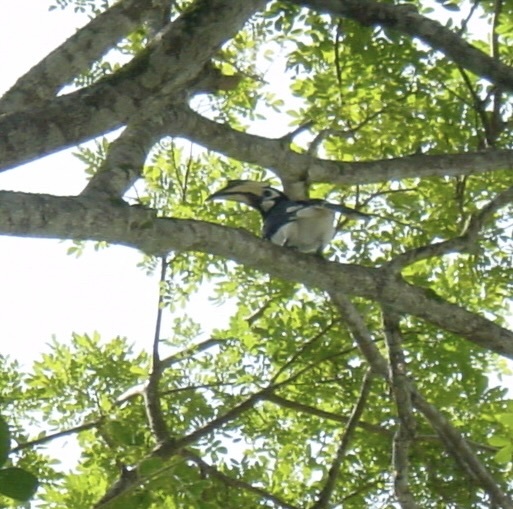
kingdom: Animalia
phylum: Chordata
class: Aves
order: Bucerotiformes
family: Bucerotidae
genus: Anthracoceros
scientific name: Anthracoceros albirostris
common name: Oriental pied-hornbill
